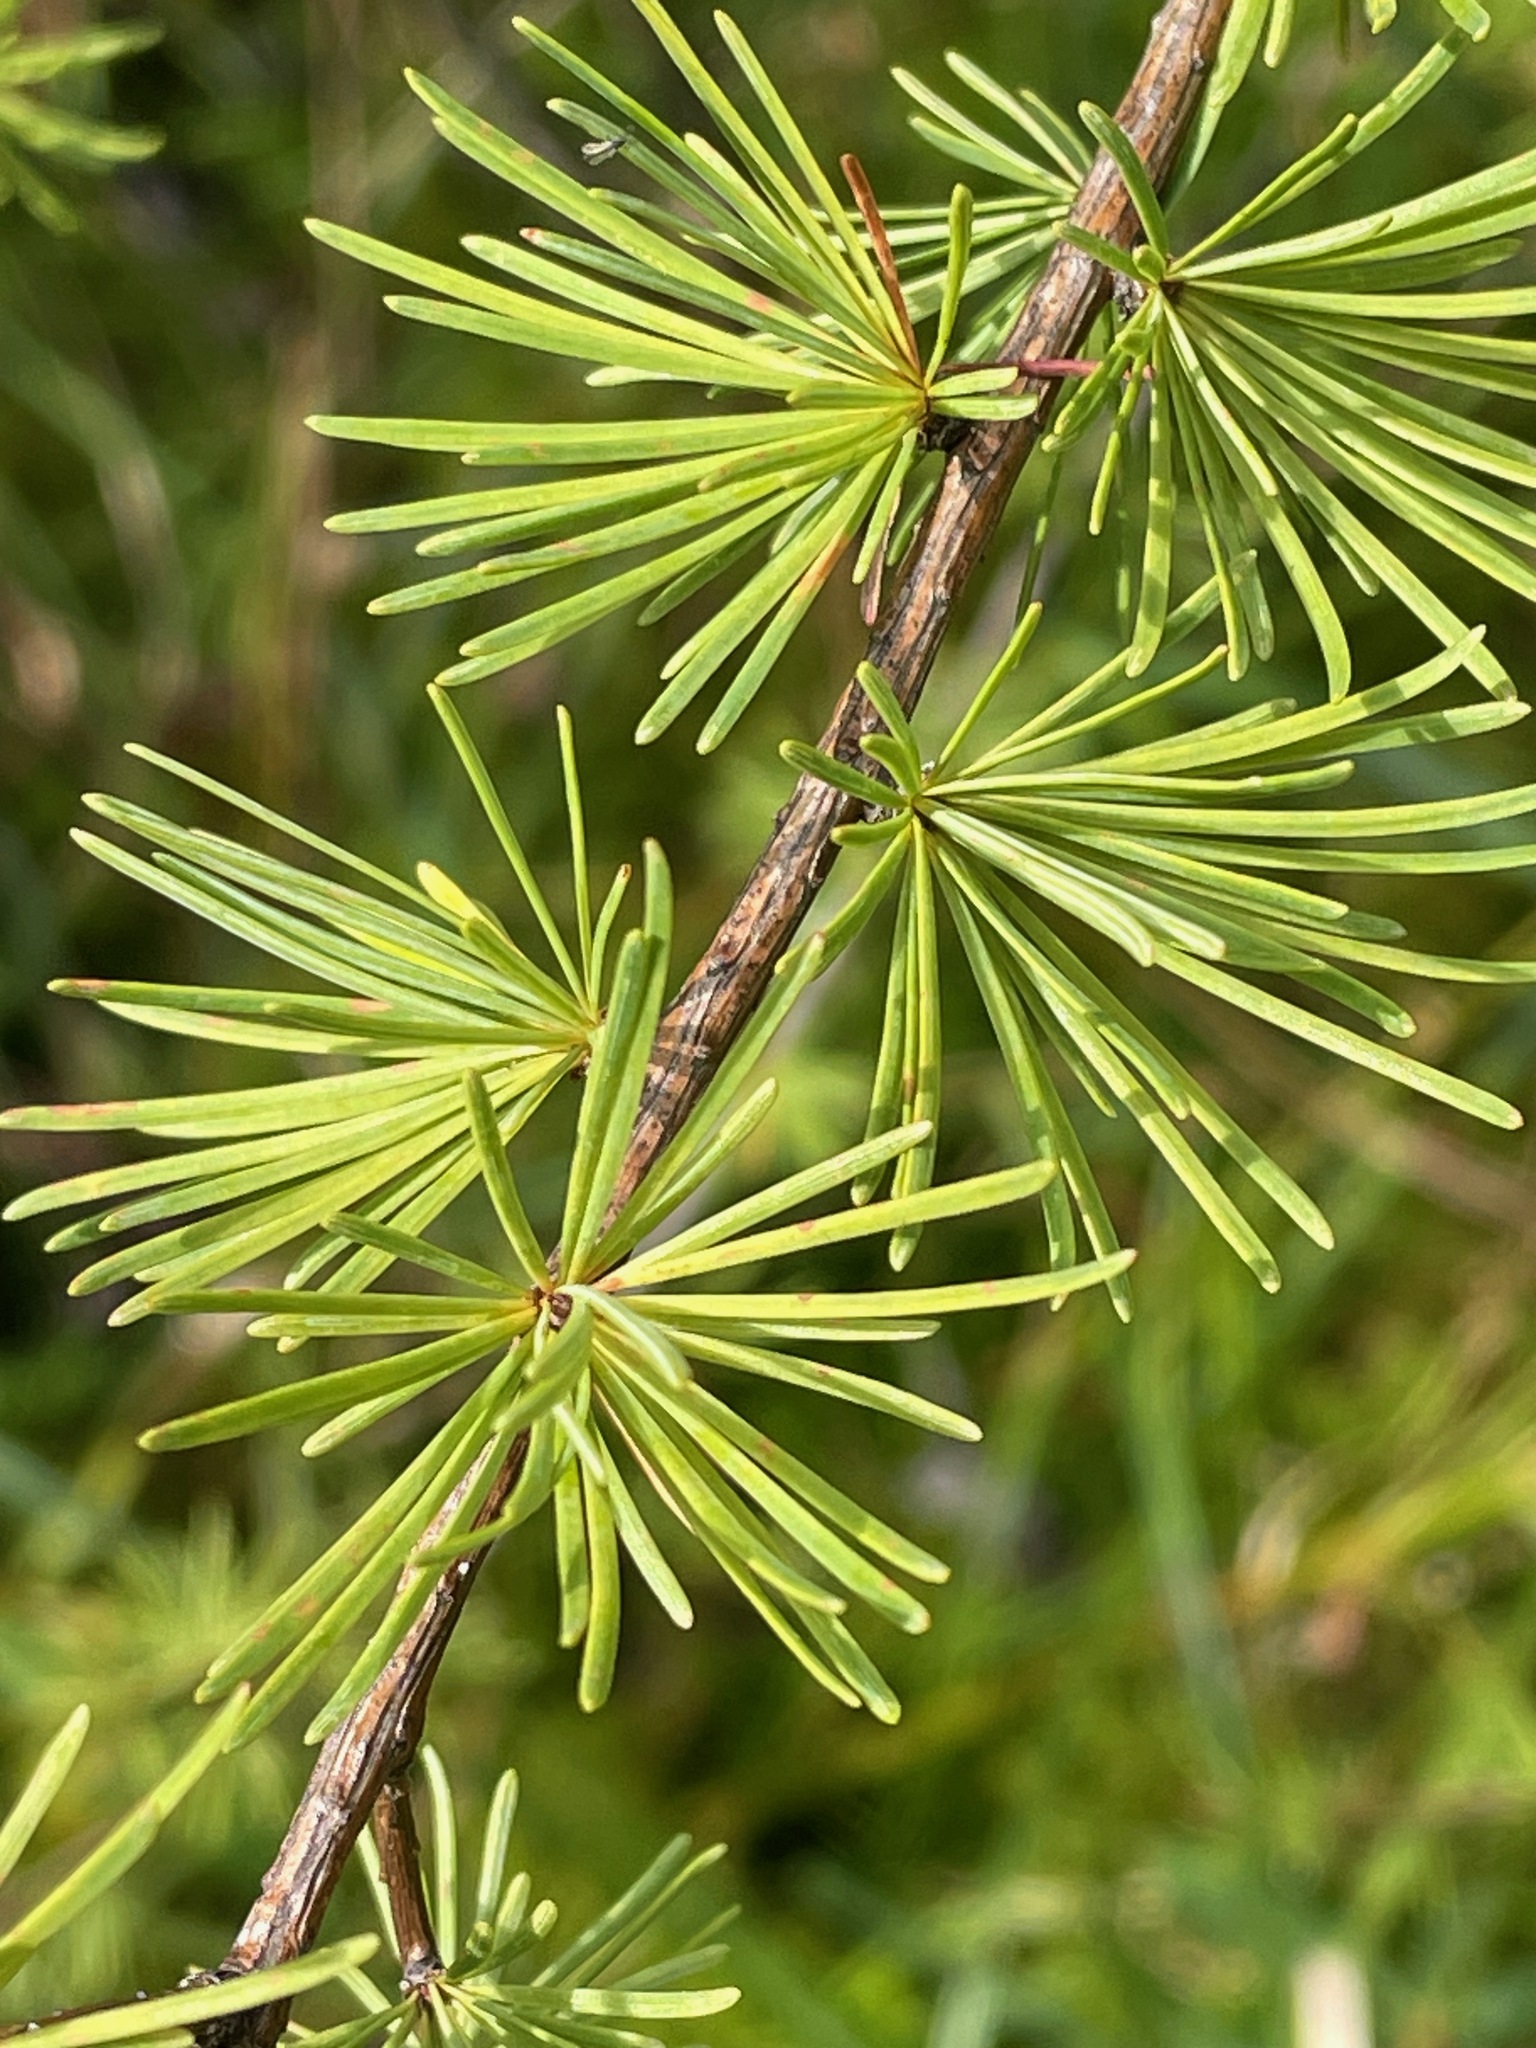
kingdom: Plantae
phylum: Tracheophyta
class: Pinopsida
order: Pinales
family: Pinaceae
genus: Larix
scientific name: Larix laricina
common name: American larch
